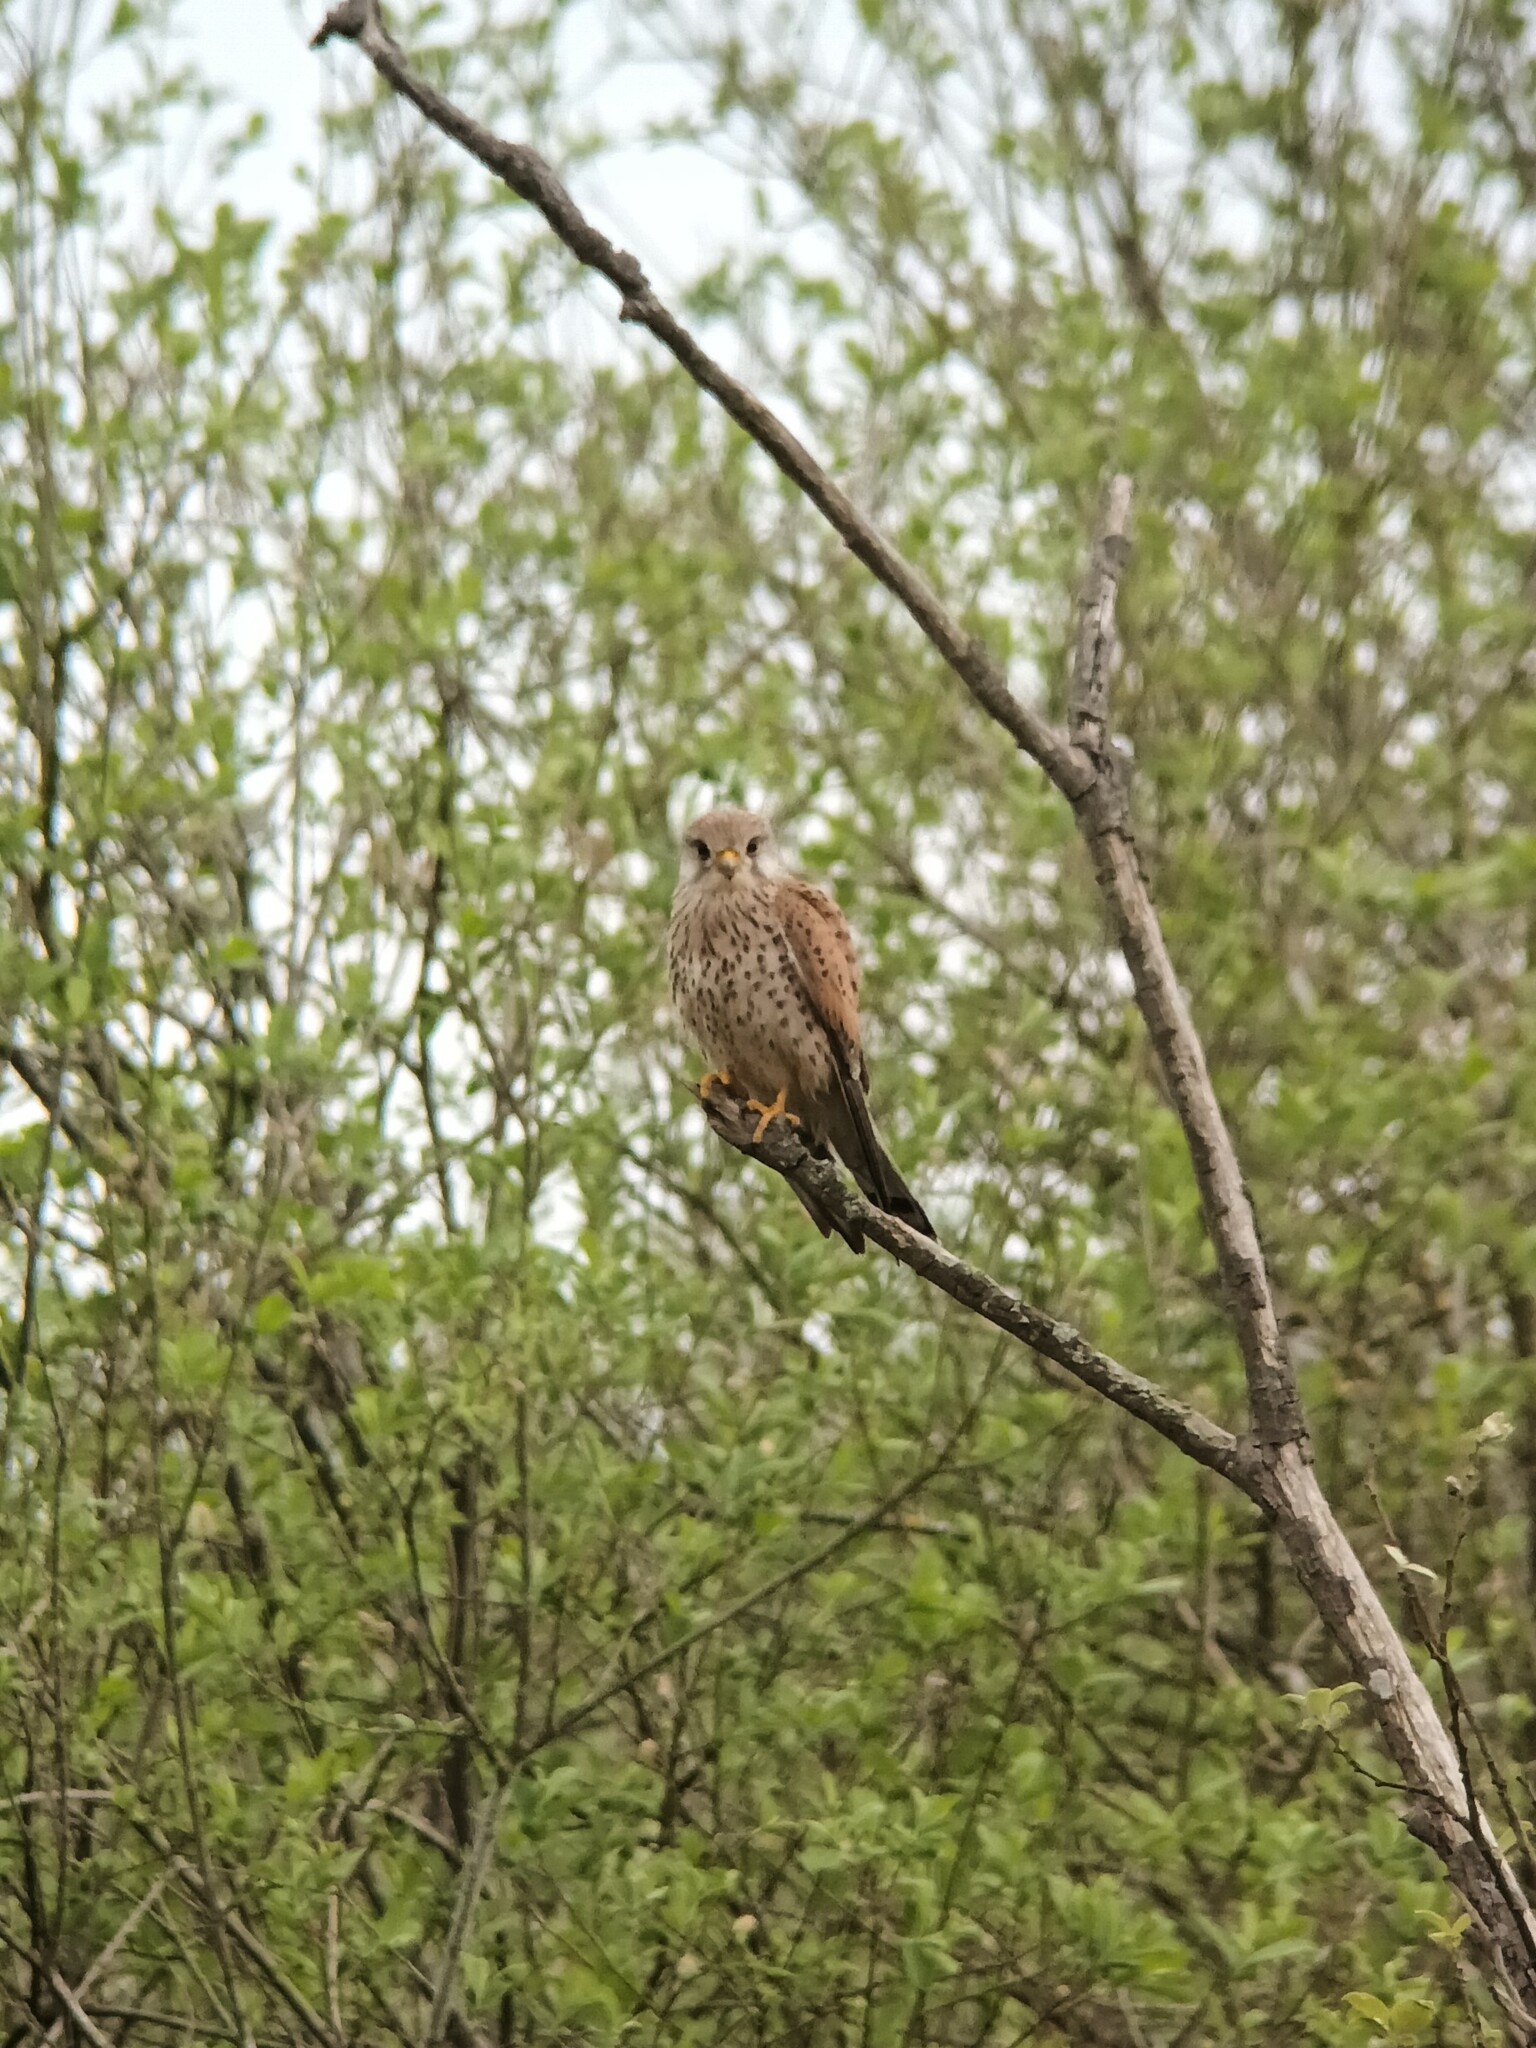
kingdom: Animalia
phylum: Chordata
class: Aves
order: Falconiformes
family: Falconidae
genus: Falco
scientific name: Falco tinnunculus
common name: Common kestrel
